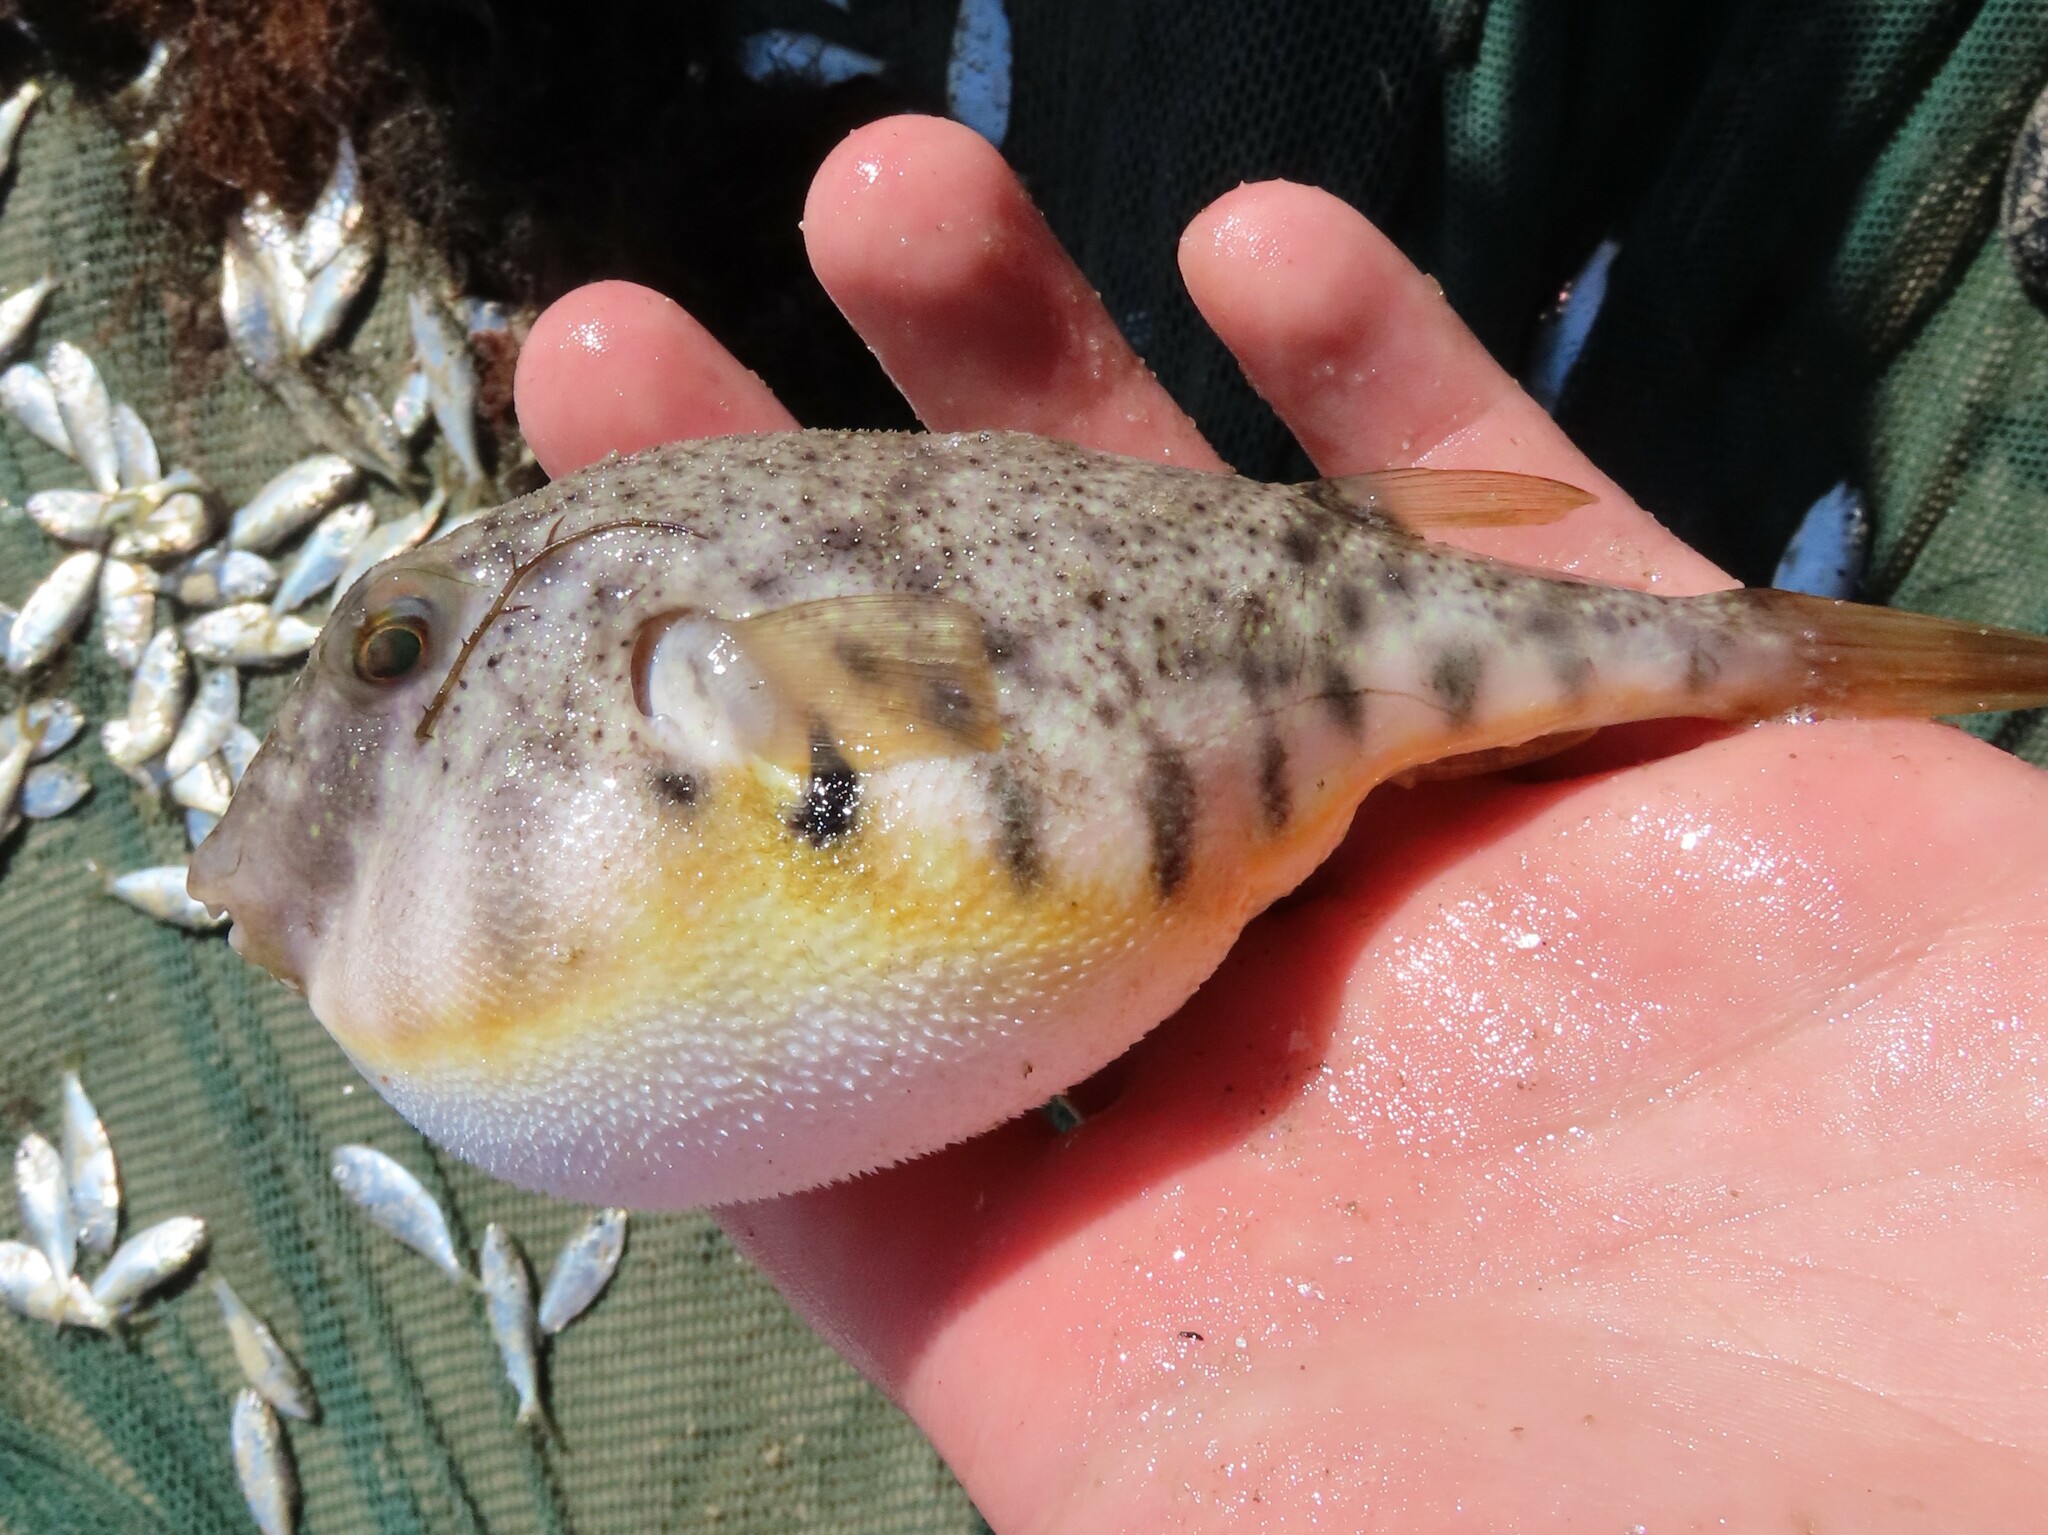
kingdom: Animalia
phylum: Chordata
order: Tetraodontiformes
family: Tetraodontidae
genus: Sphoeroides
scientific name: Sphoeroides maculatus
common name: Northern puffer
